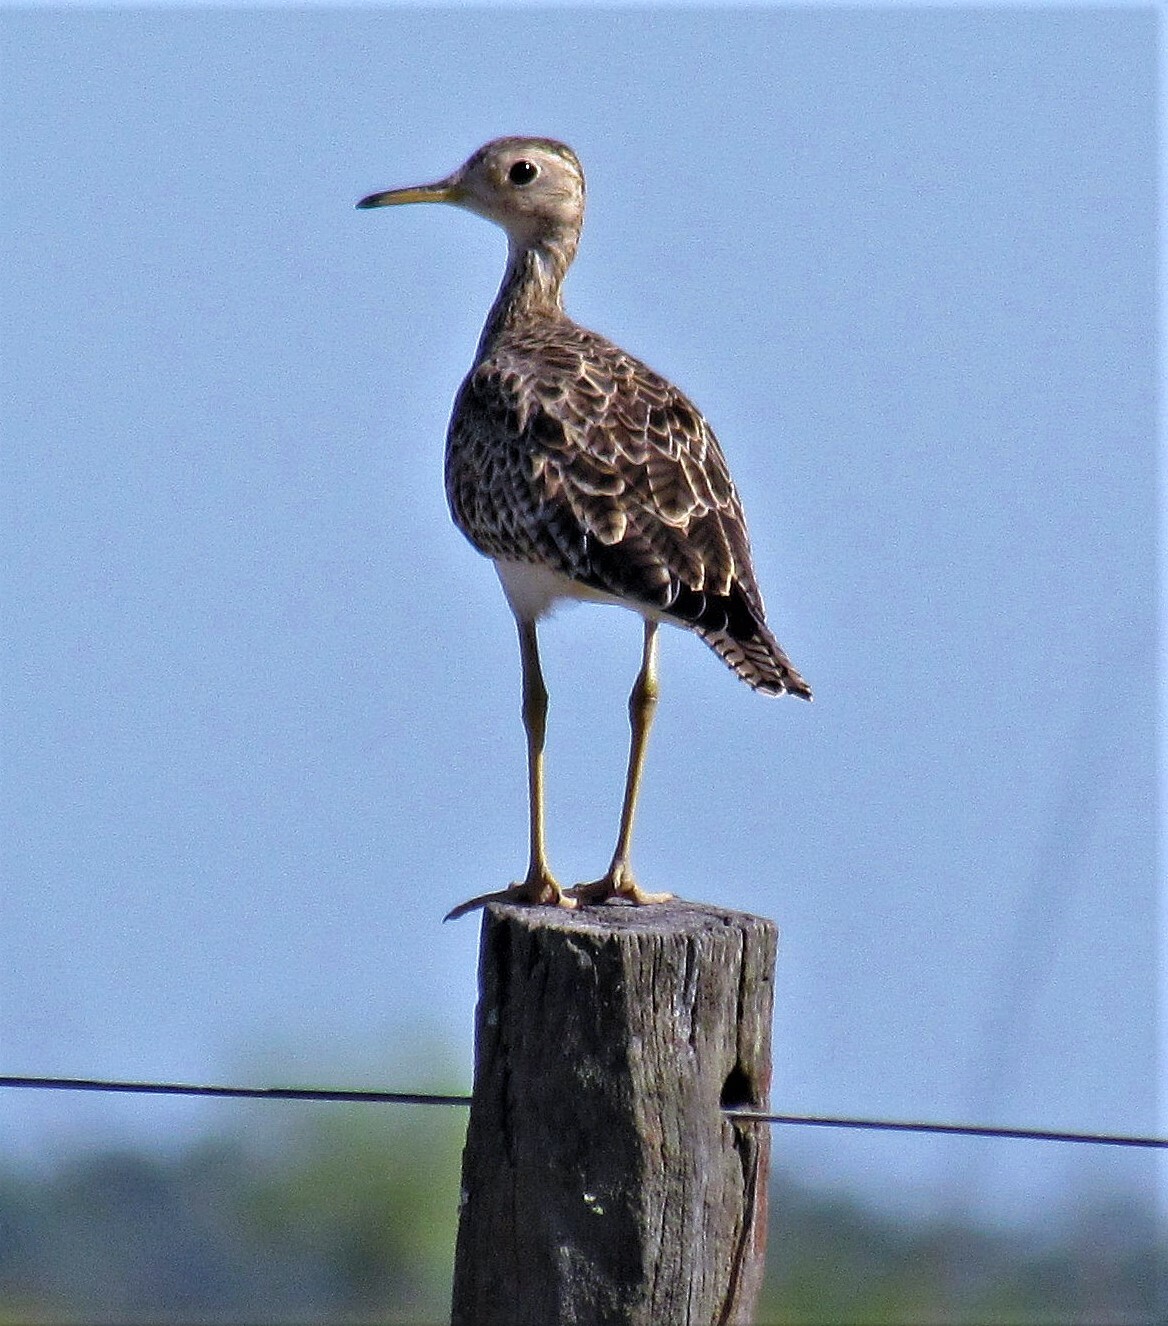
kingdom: Animalia
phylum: Chordata
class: Aves
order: Charadriiformes
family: Scolopacidae
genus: Bartramia
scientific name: Bartramia longicauda
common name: Upland sandpiper
